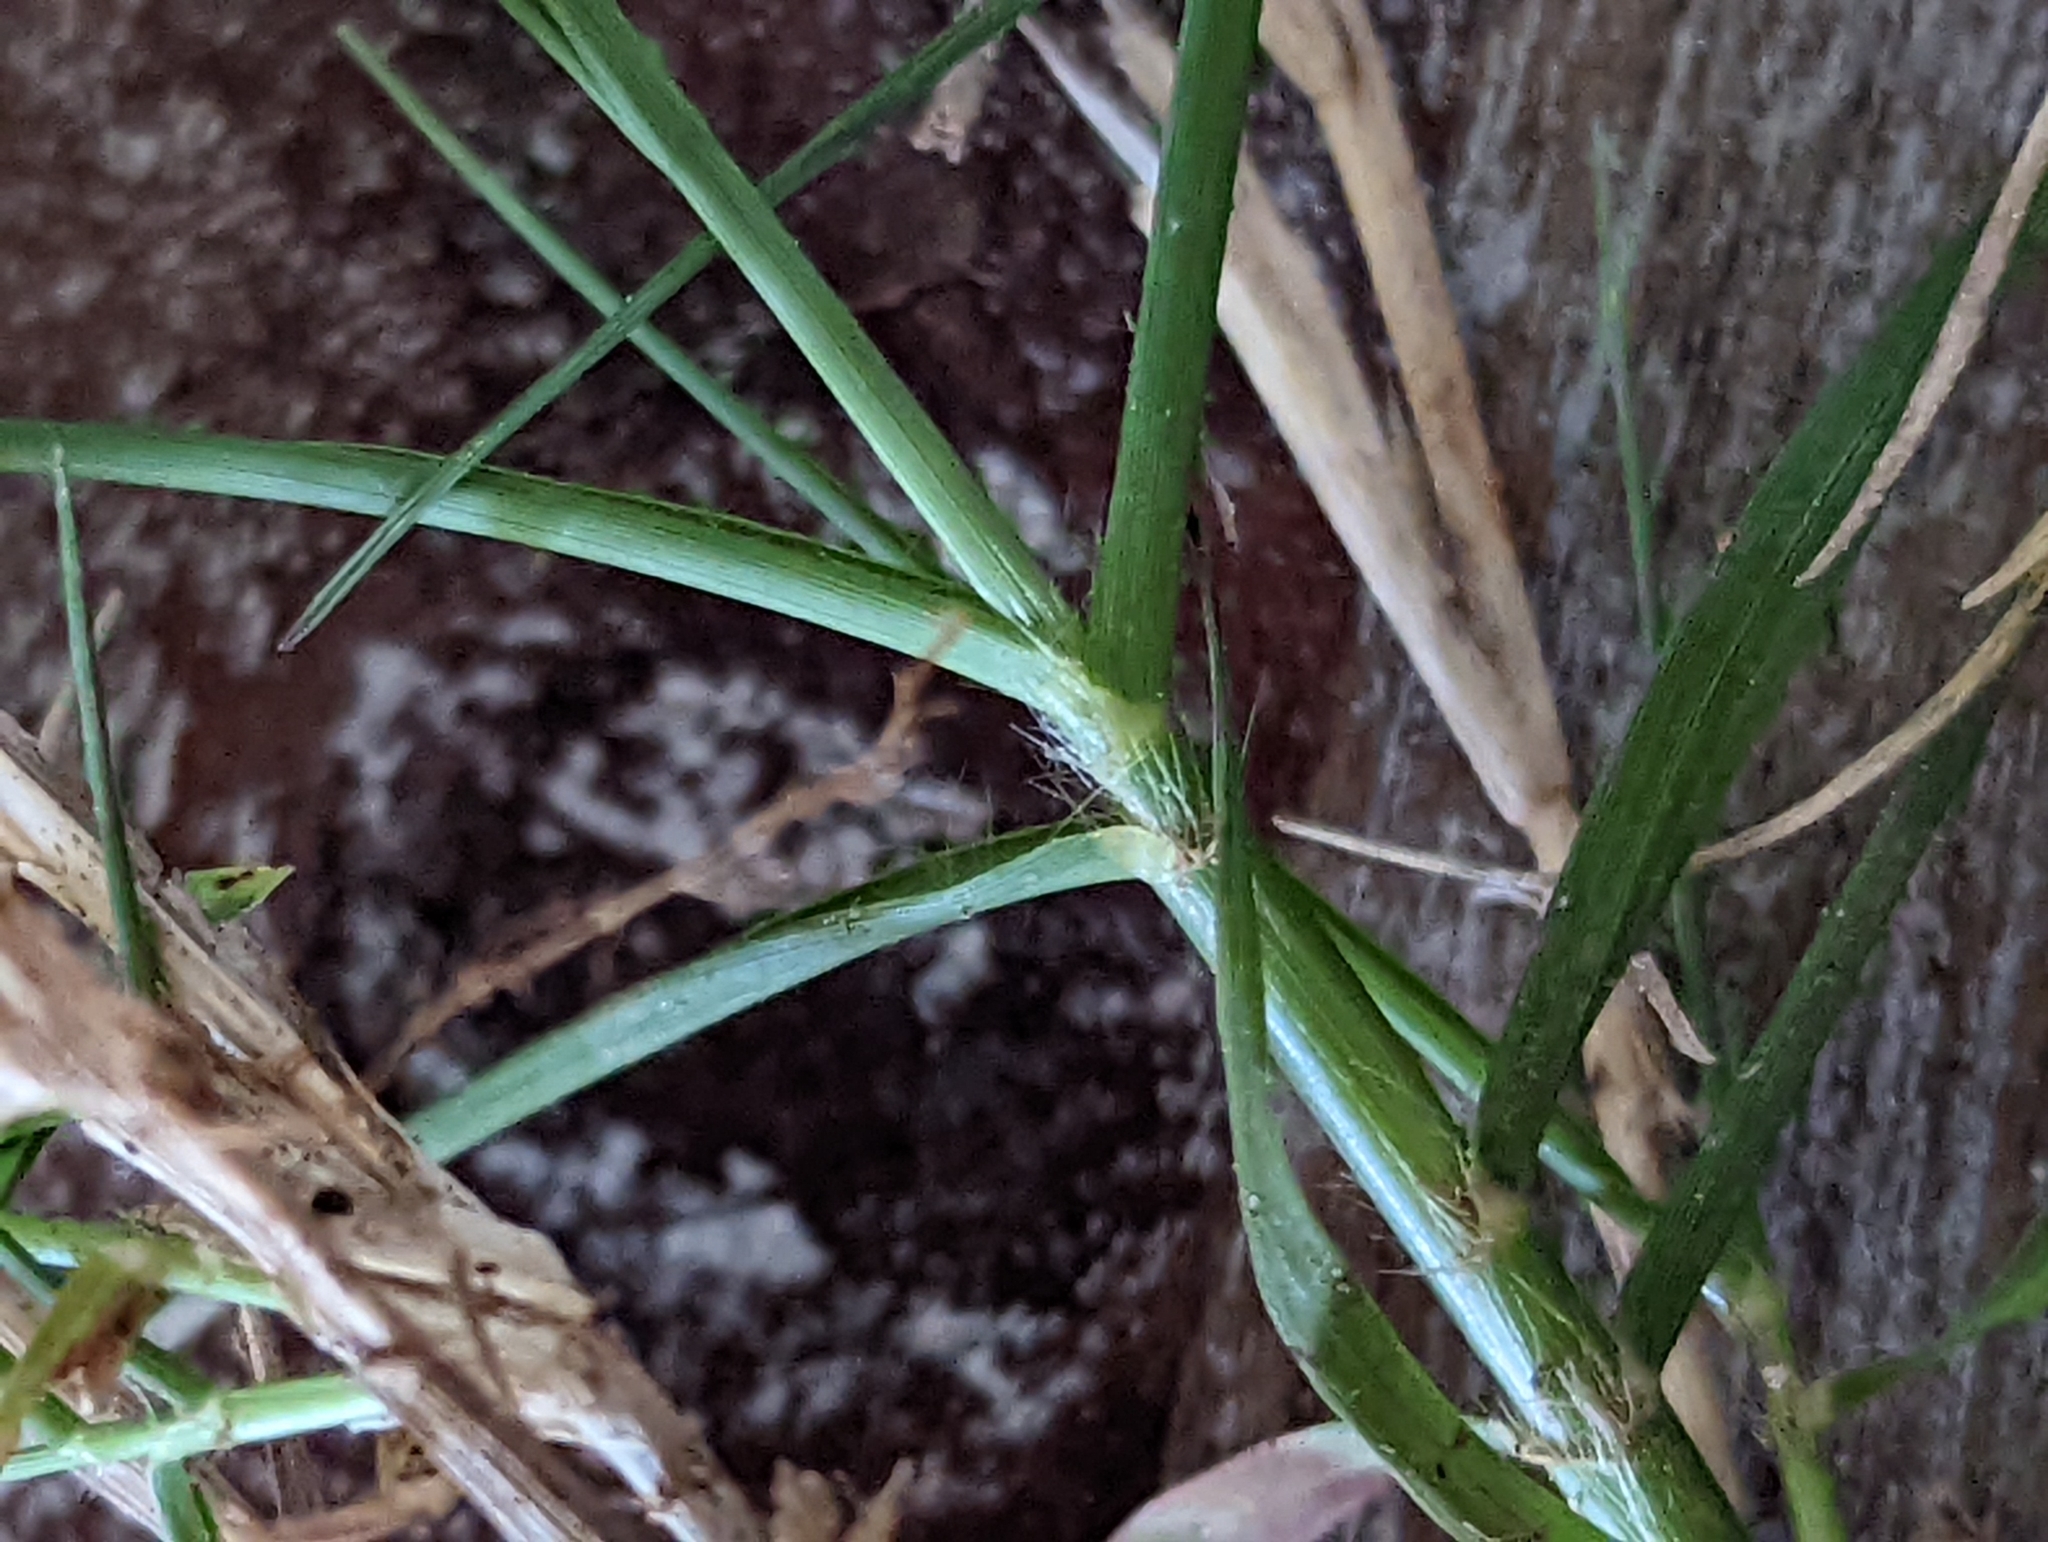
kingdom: Plantae
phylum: Tracheophyta
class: Liliopsida
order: Poales
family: Poaceae
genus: Cynodon
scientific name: Cynodon dactylon
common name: Bermuda grass
